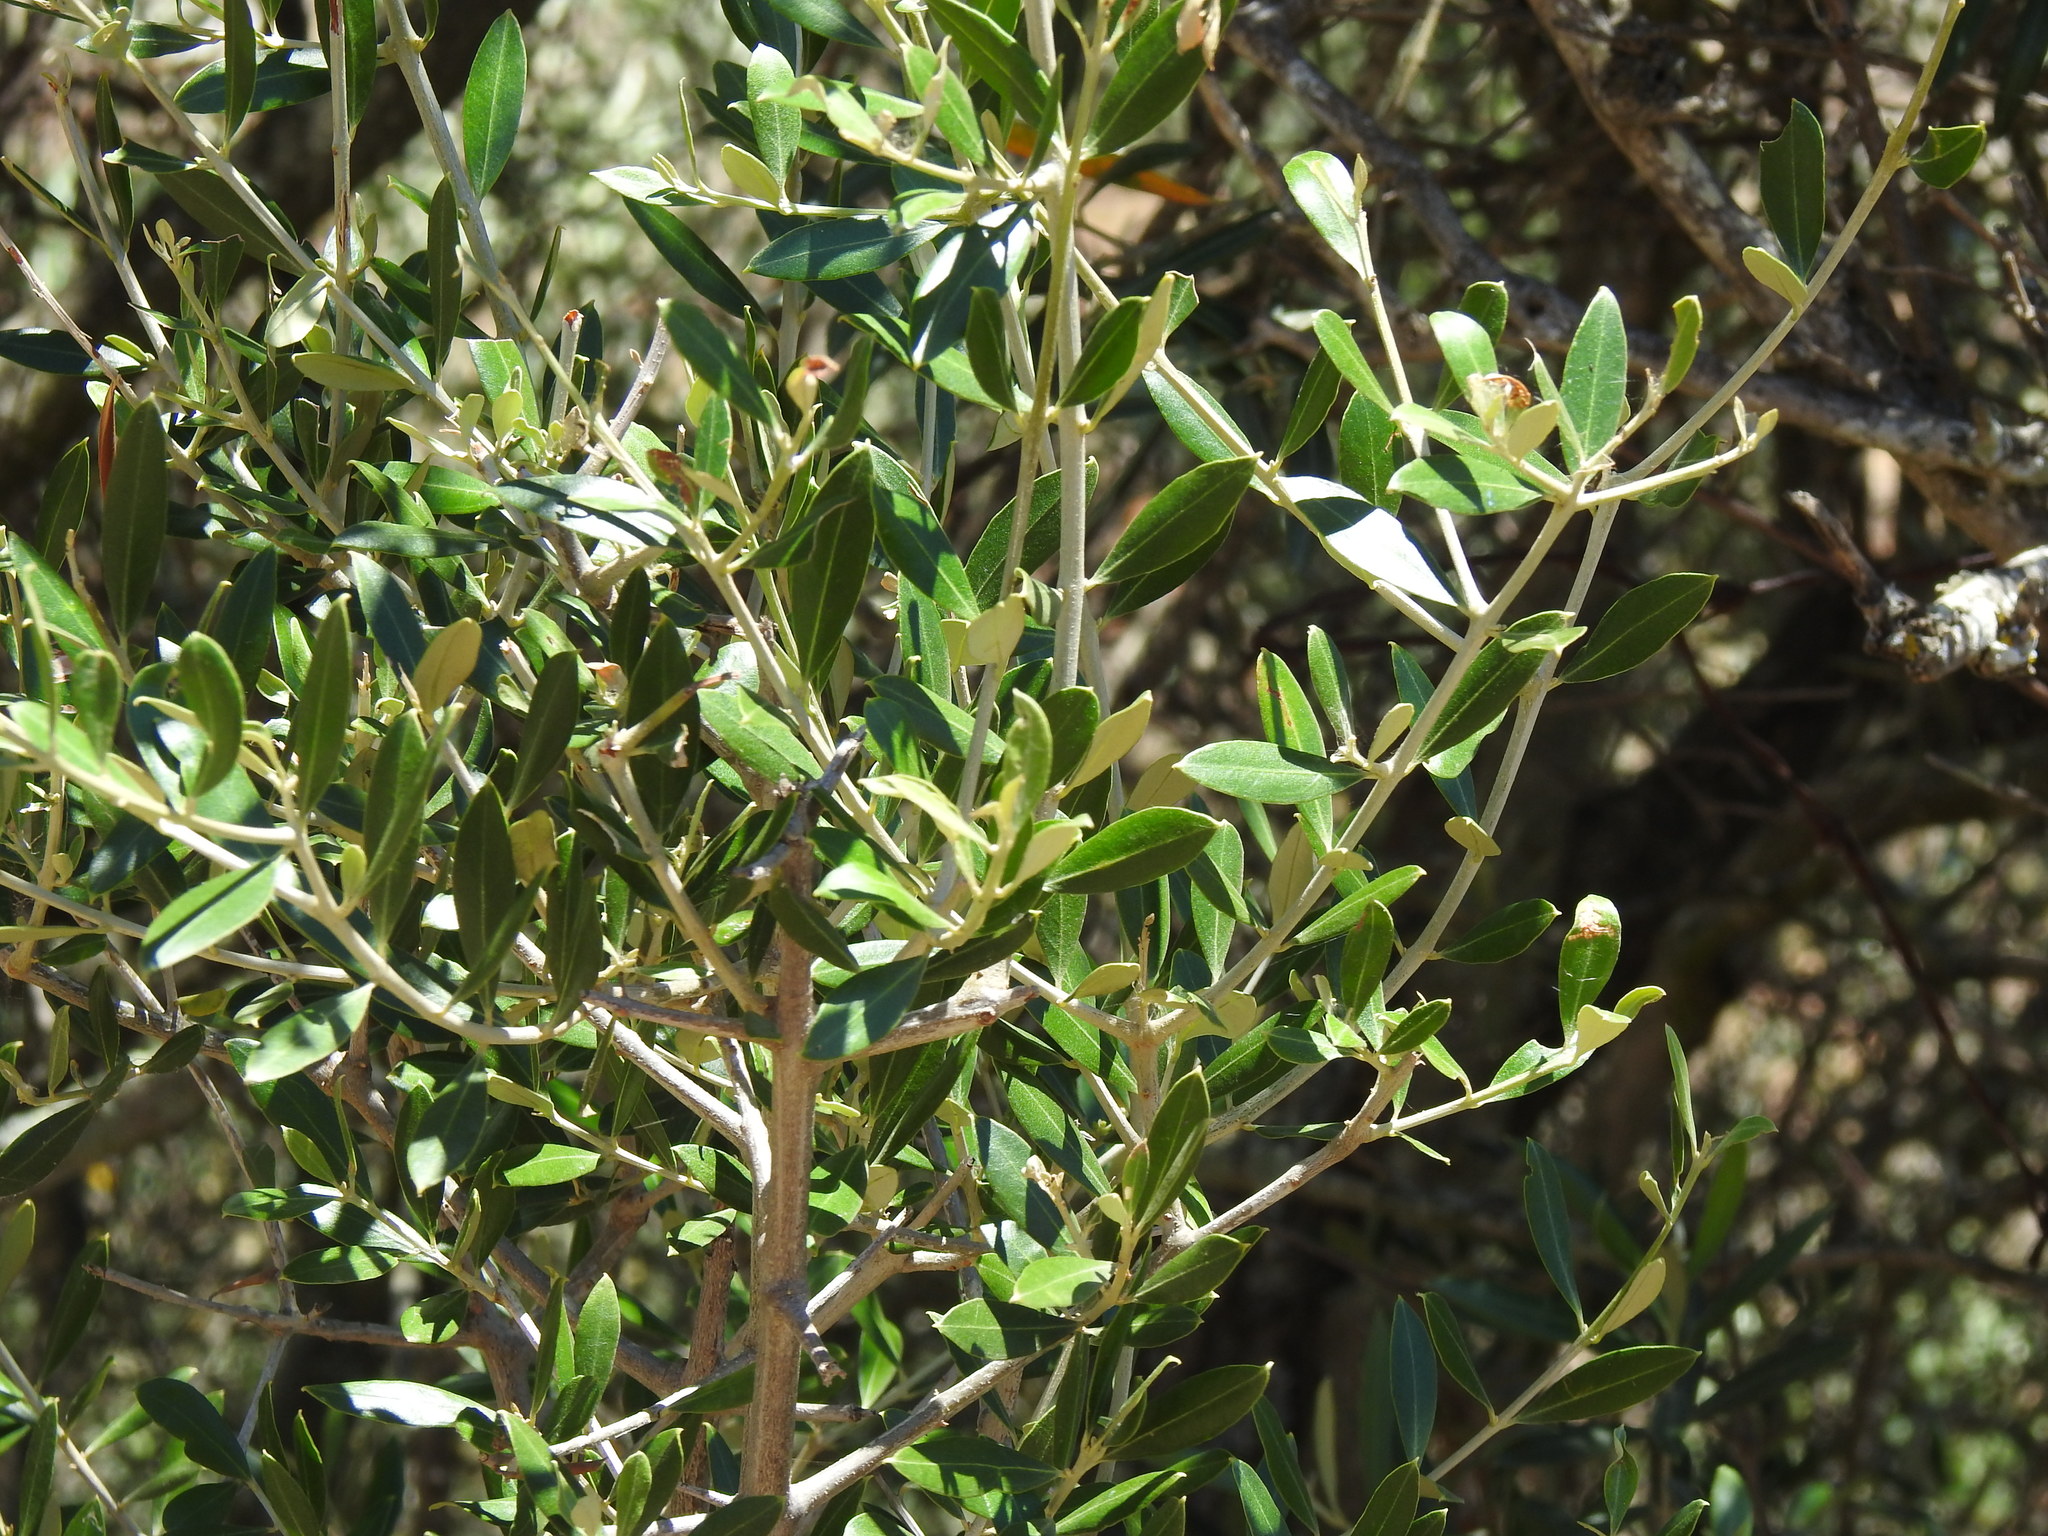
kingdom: Plantae
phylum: Tracheophyta
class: Magnoliopsida
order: Lamiales
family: Oleaceae
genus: Olea
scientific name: Olea europaea
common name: Olive
